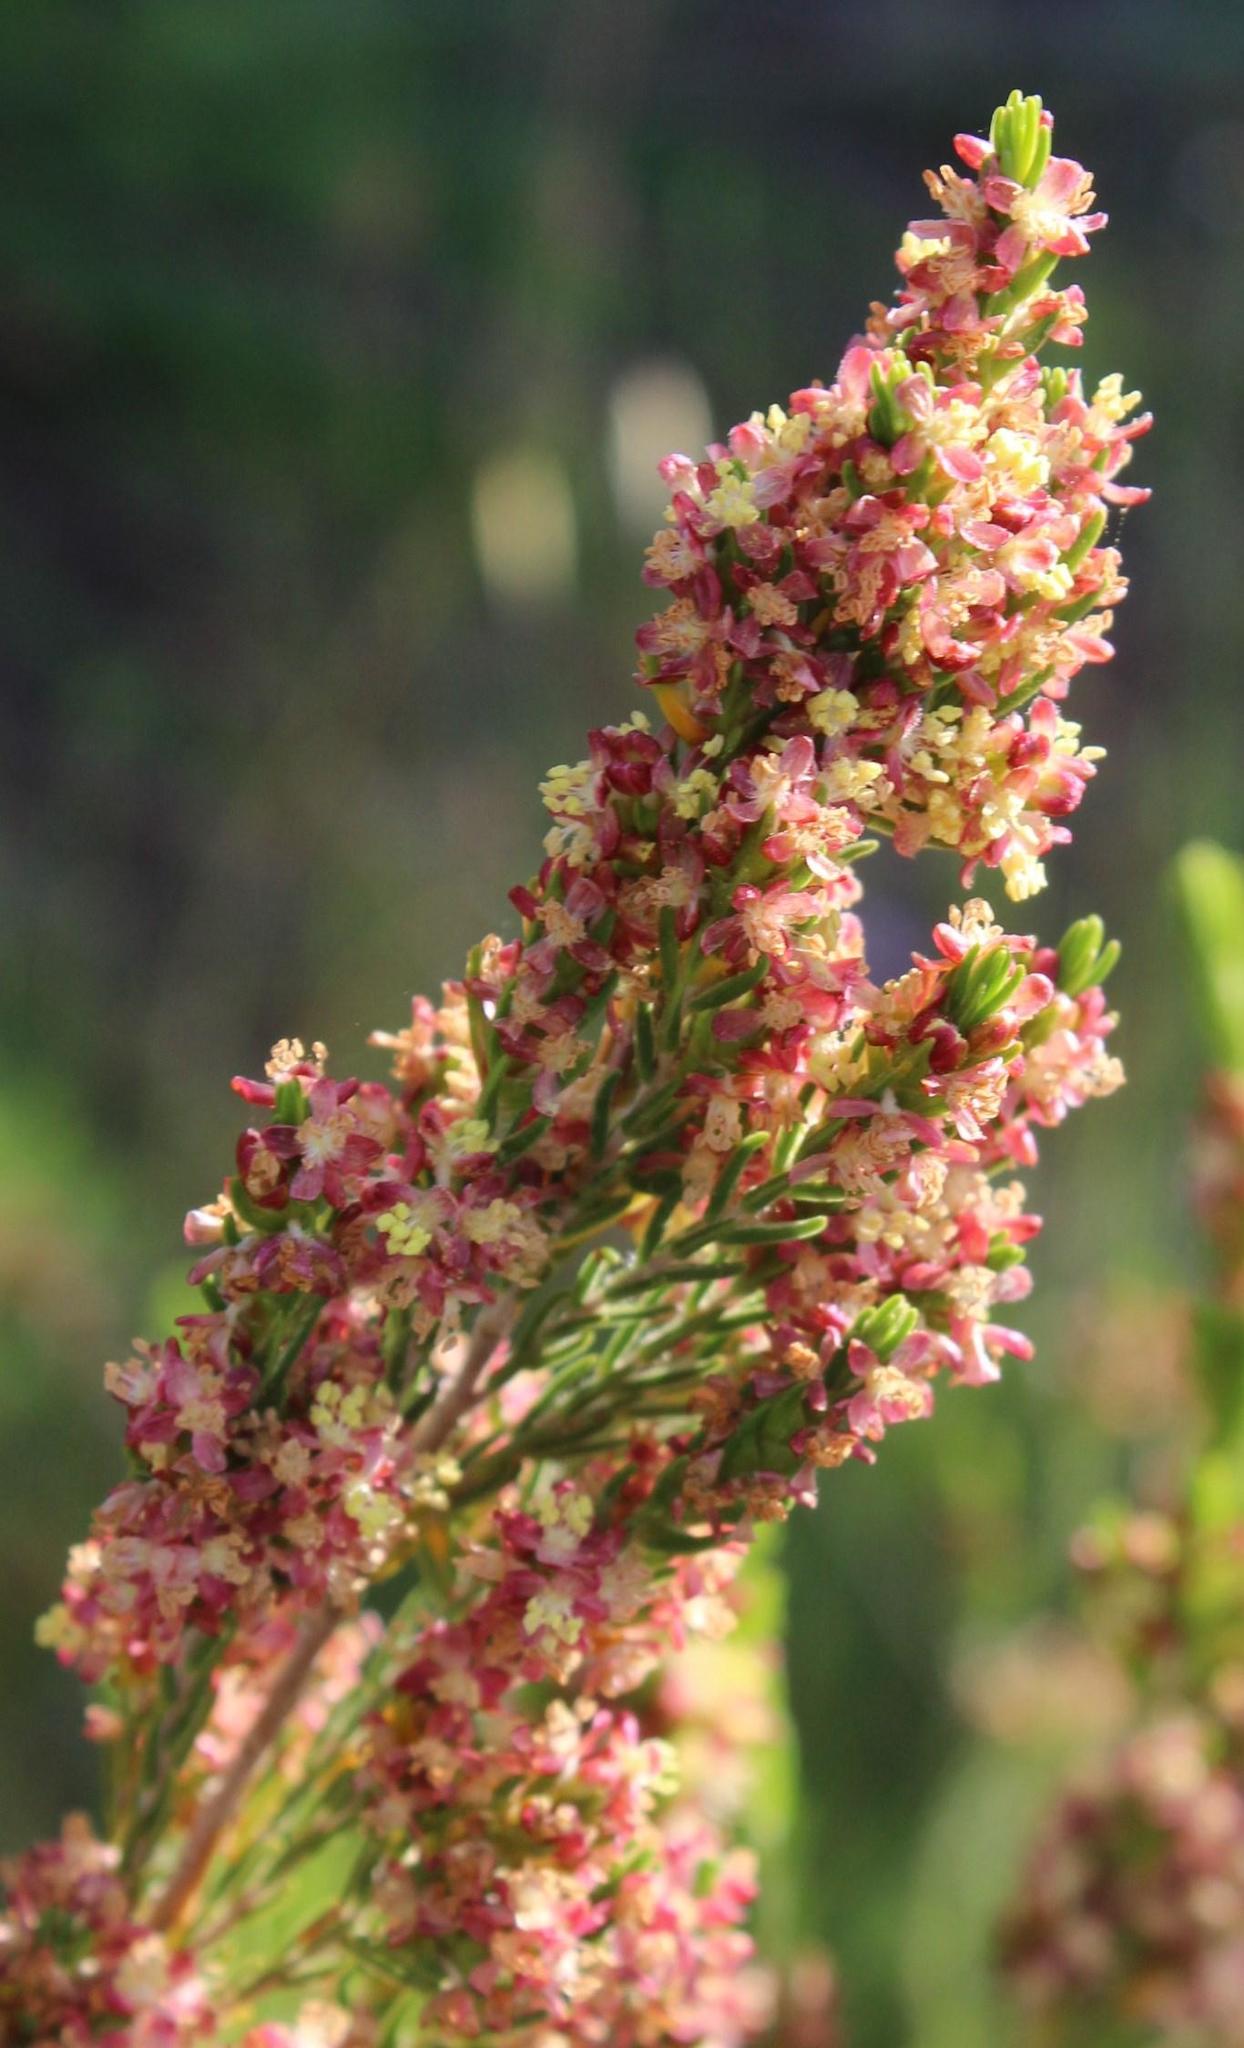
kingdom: Plantae
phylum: Tracheophyta
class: Magnoliopsida
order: Malvales
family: Thymelaeaceae
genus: Passerina
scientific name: Passerina corymbosa
